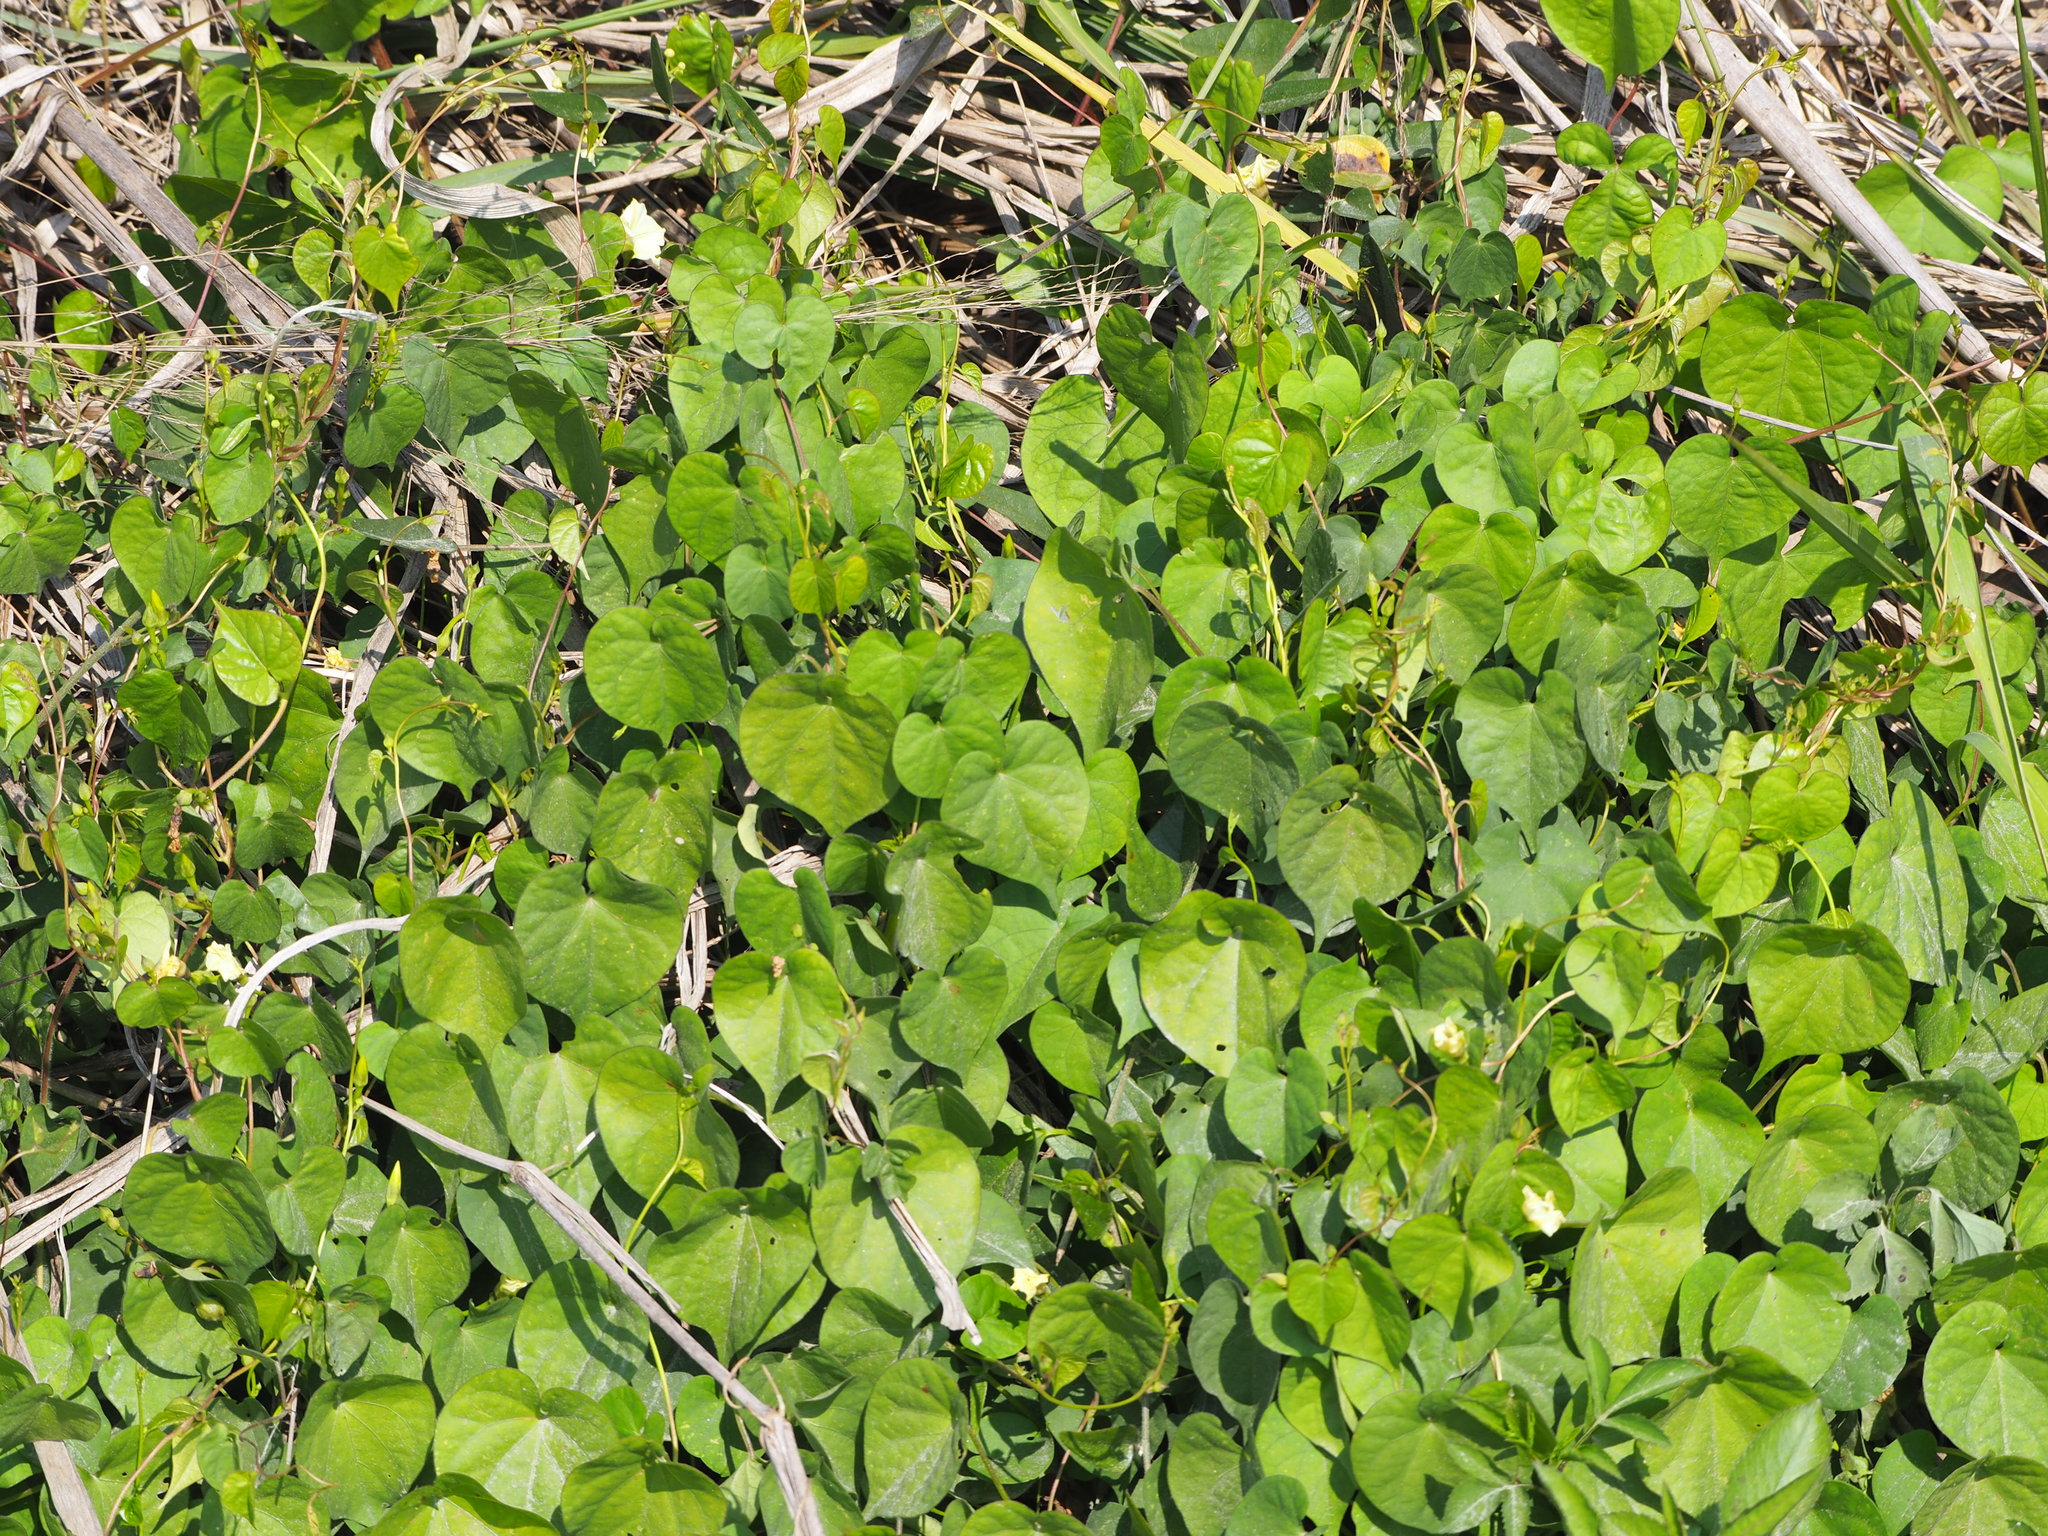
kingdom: Plantae
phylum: Tracheophyta
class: Magnoliopsida
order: Solanales
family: Convolvulaceae
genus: Ipomoea
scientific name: Ipomoea obscura
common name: Obscure morning-glory
